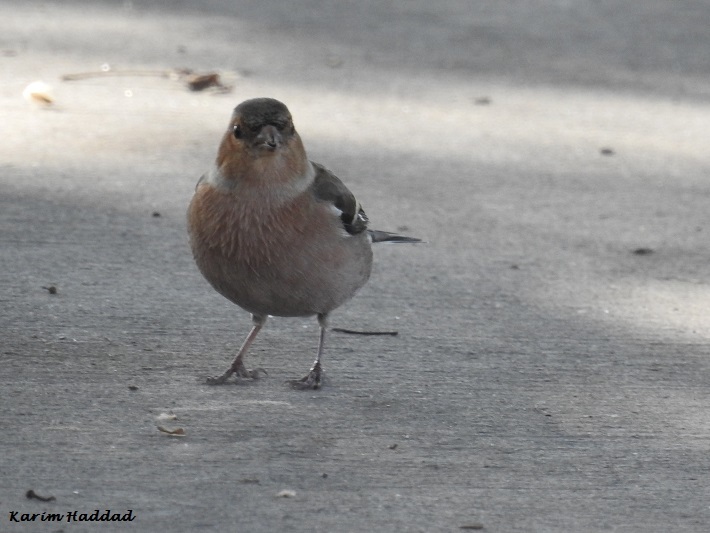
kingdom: Animalia
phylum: Chordata
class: Aves
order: Passeriformes
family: Fringillidae
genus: Fringilla
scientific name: Fringilla coelebs
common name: Common chaffinch
